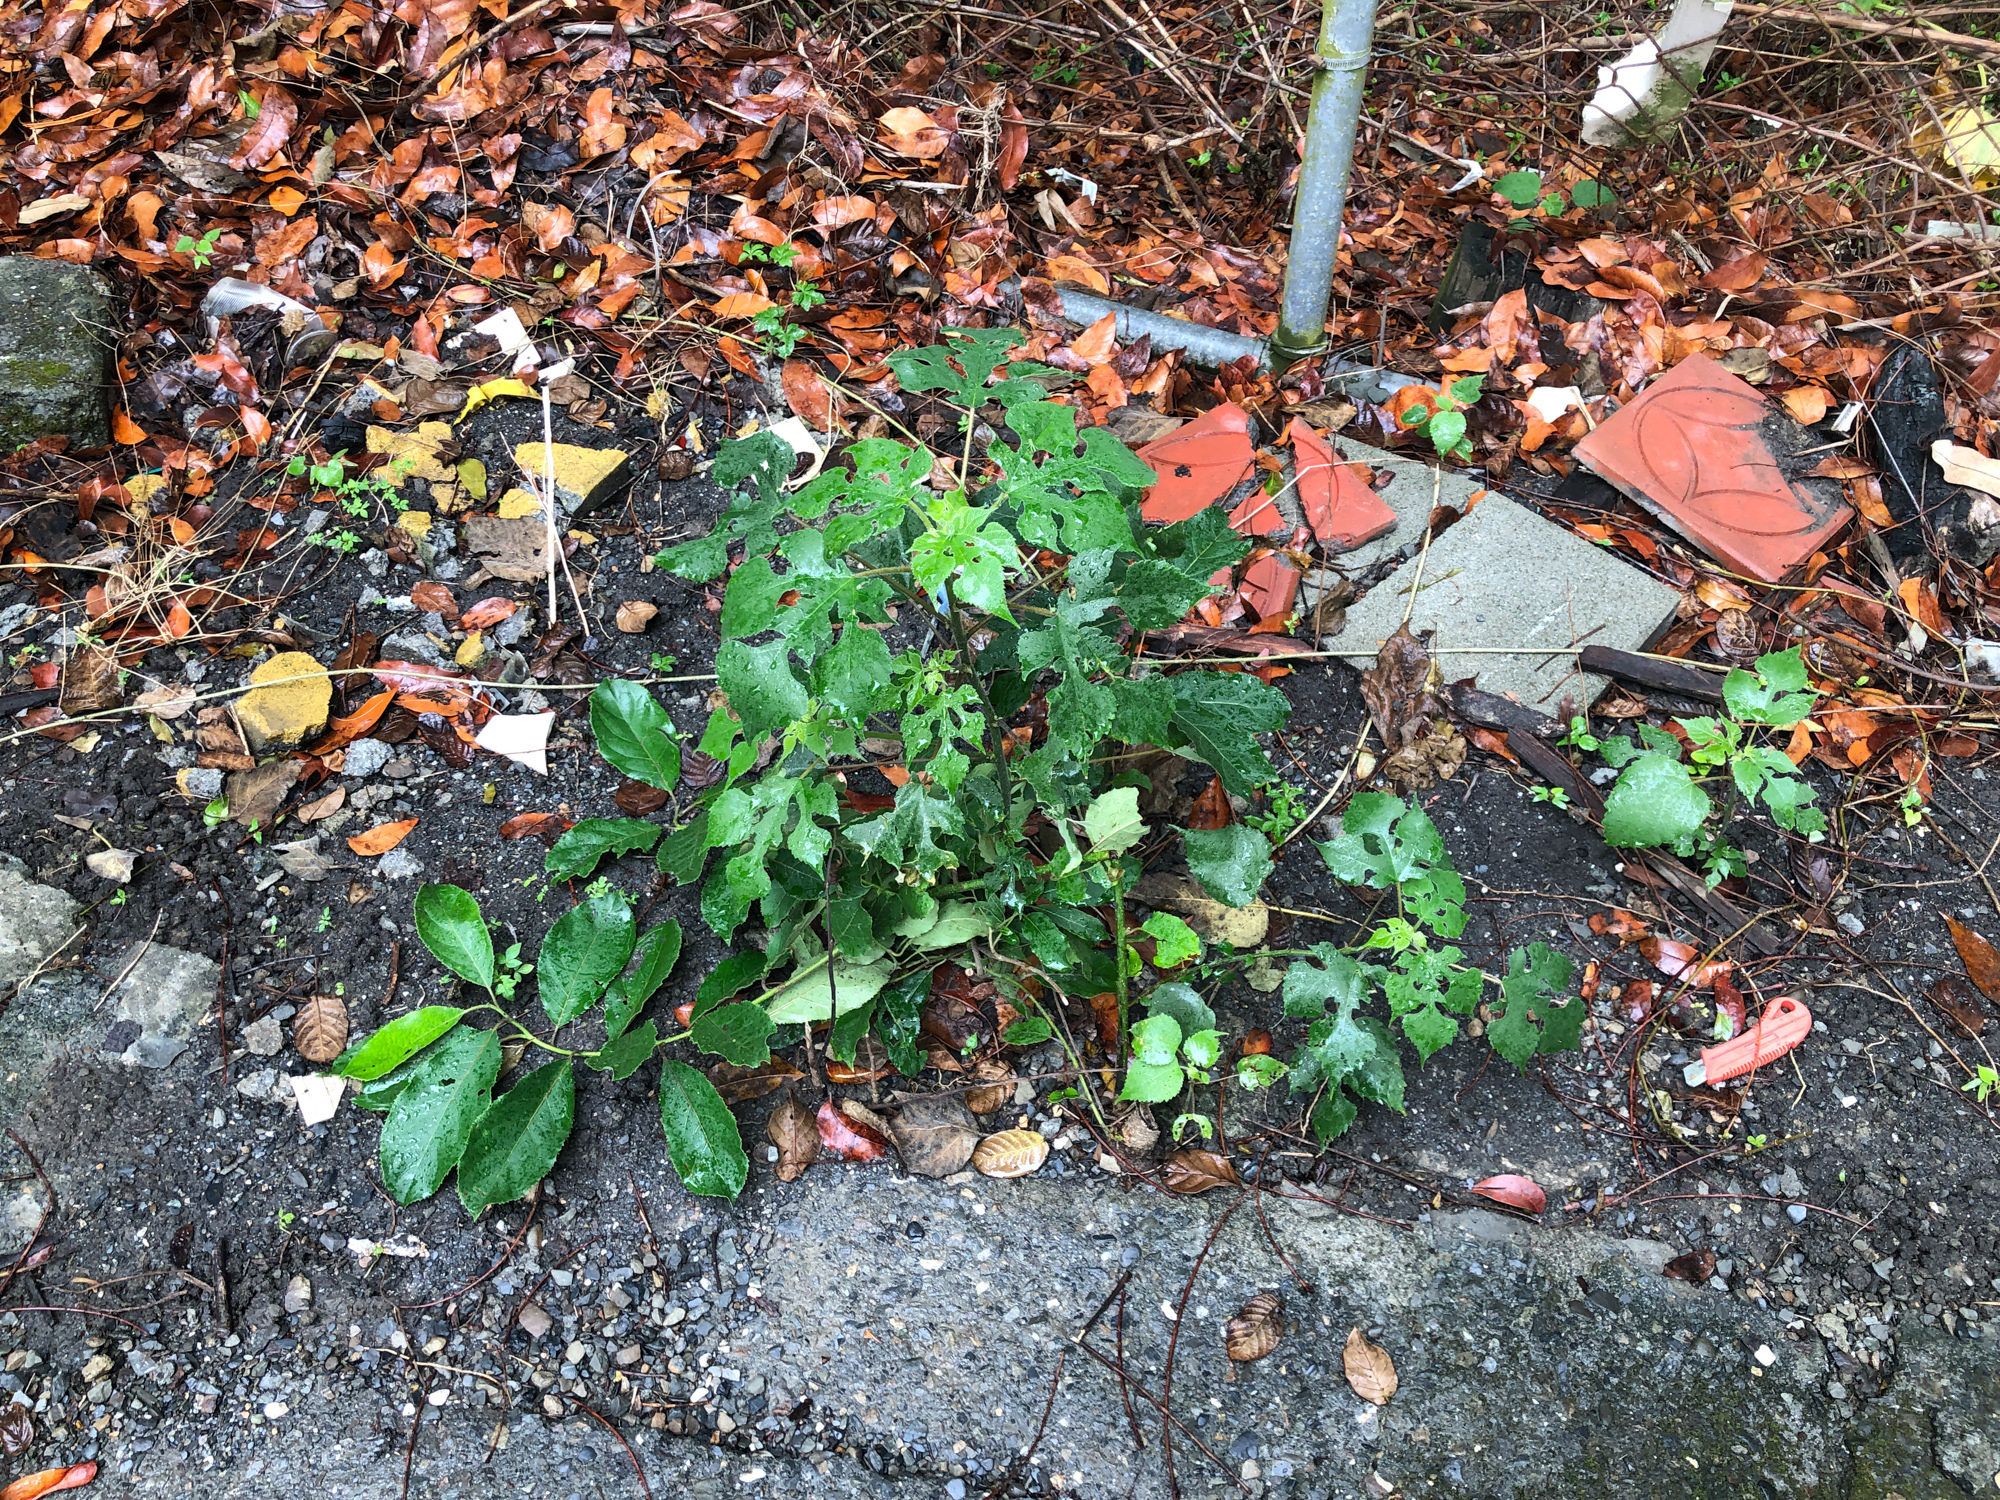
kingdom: Plantae
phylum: Tracheophyta
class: Magnoliopsida
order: Rosales
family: Moraceae
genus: Broussonetia
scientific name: Broussonetia papyrifera
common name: Paper mulberry
